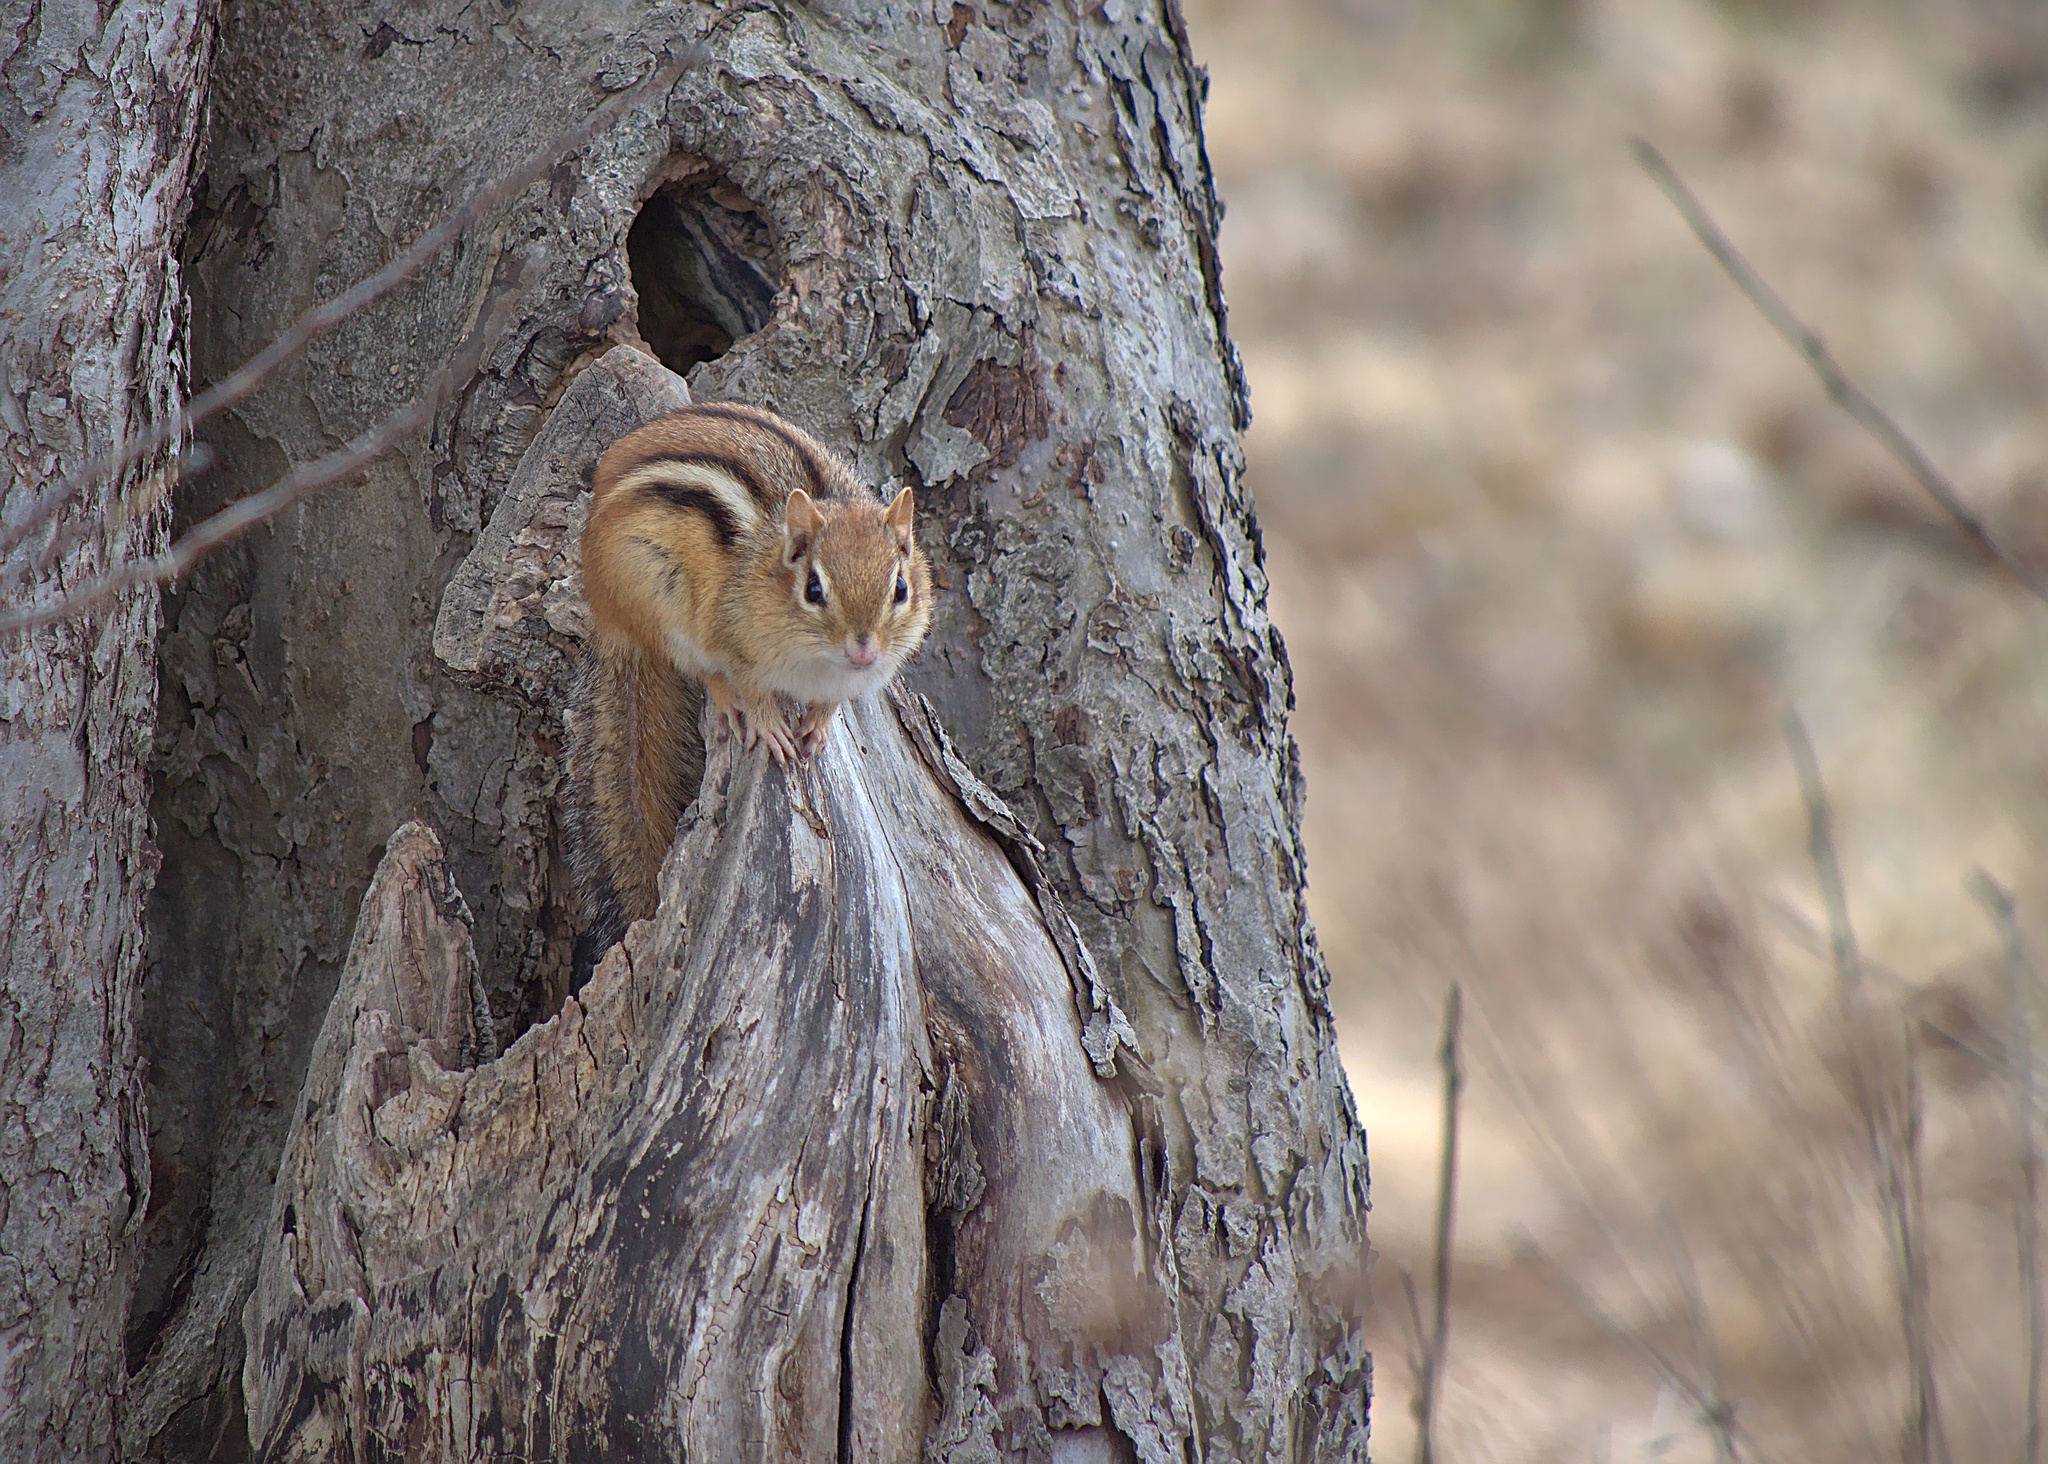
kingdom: Animalia
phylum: Chordata
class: Mammalia
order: Rodentia
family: Sciuridae
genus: Tamias
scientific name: Tamias striatus
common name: Eastern chipmunk
